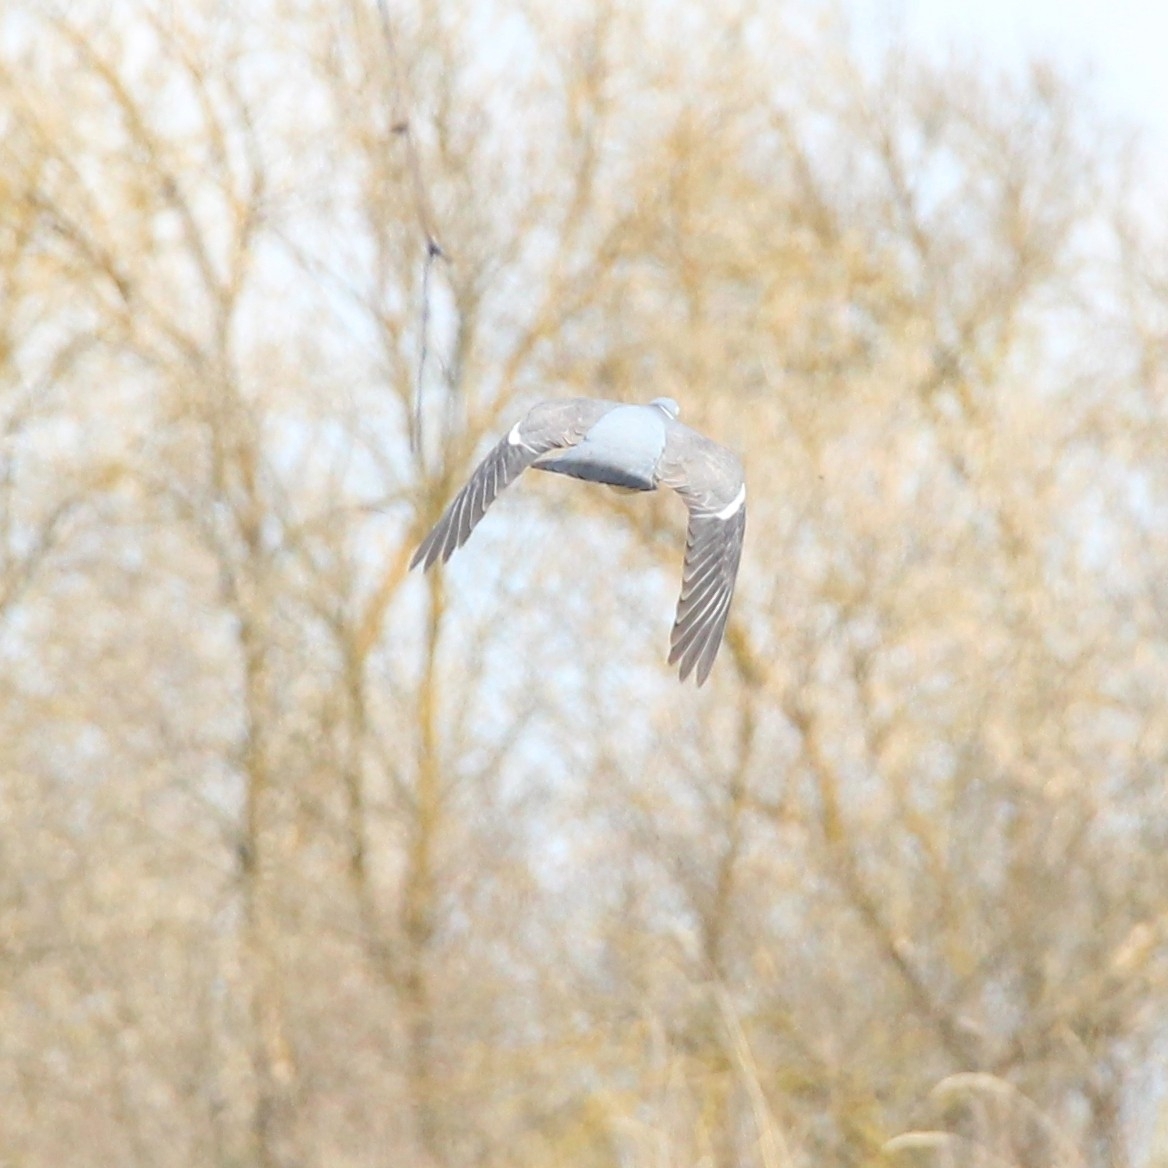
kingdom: Animalia
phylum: Chordata
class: Aves
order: Columbiformes
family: Columbidae
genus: Columba
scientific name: Columba palumbus
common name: Common wood pigeon
